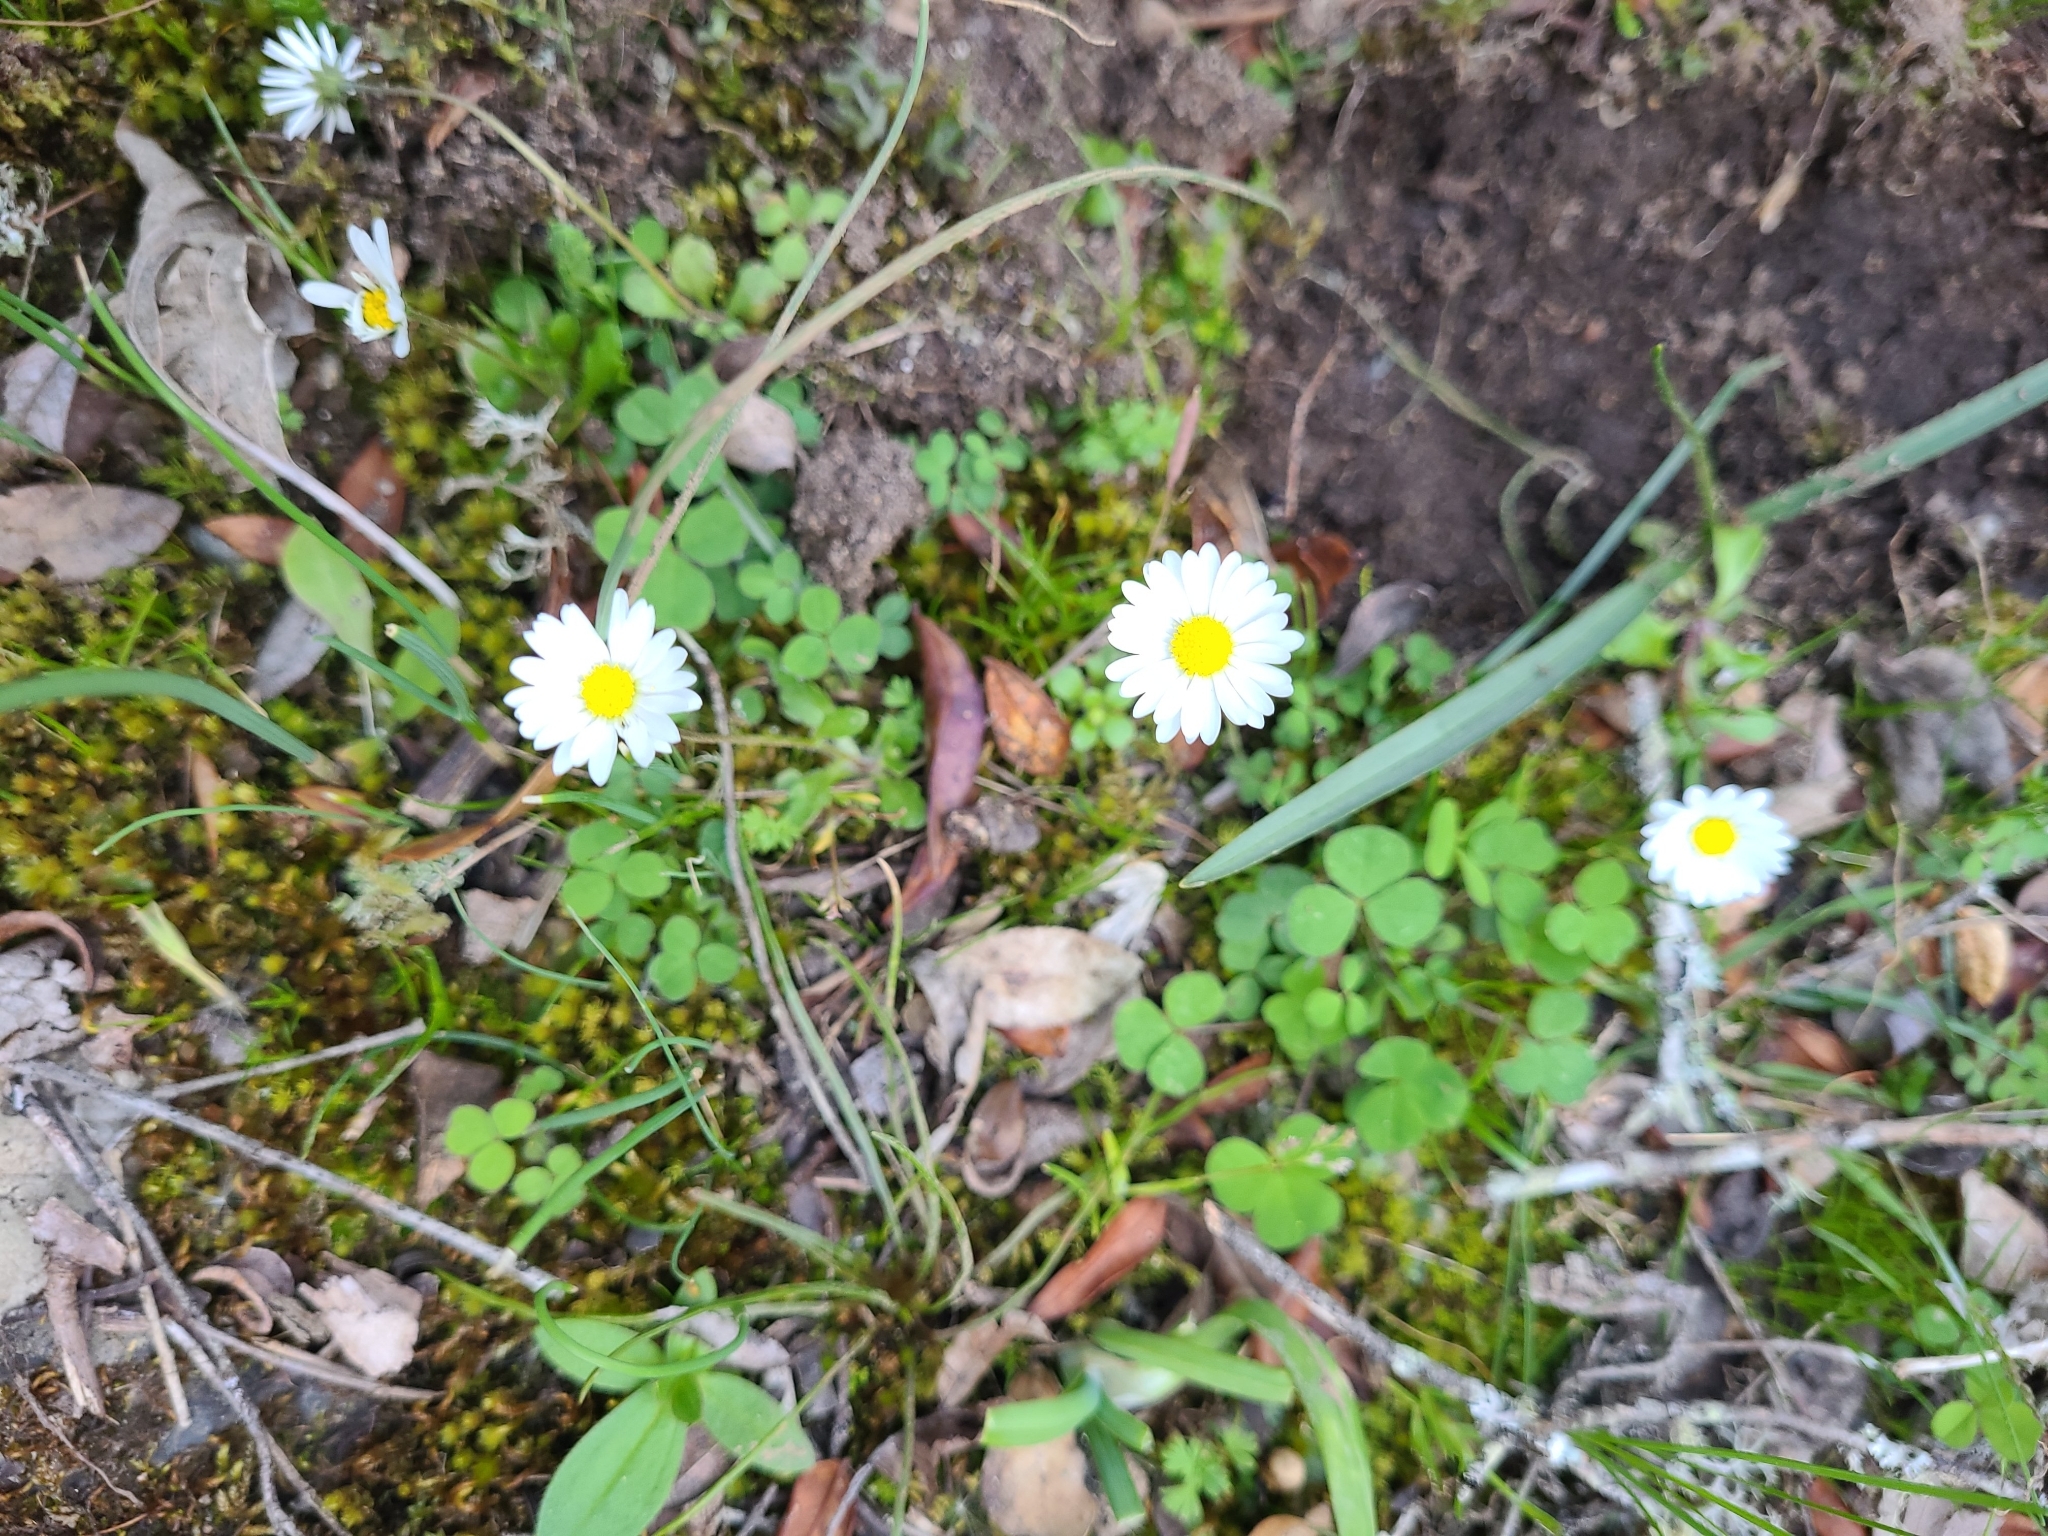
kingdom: Plantae
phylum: Tracheophyta
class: Magnoliopsida
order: Asterales
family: Asteraceae
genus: Bellis
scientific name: Bellis perennis
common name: Lawndaisy
